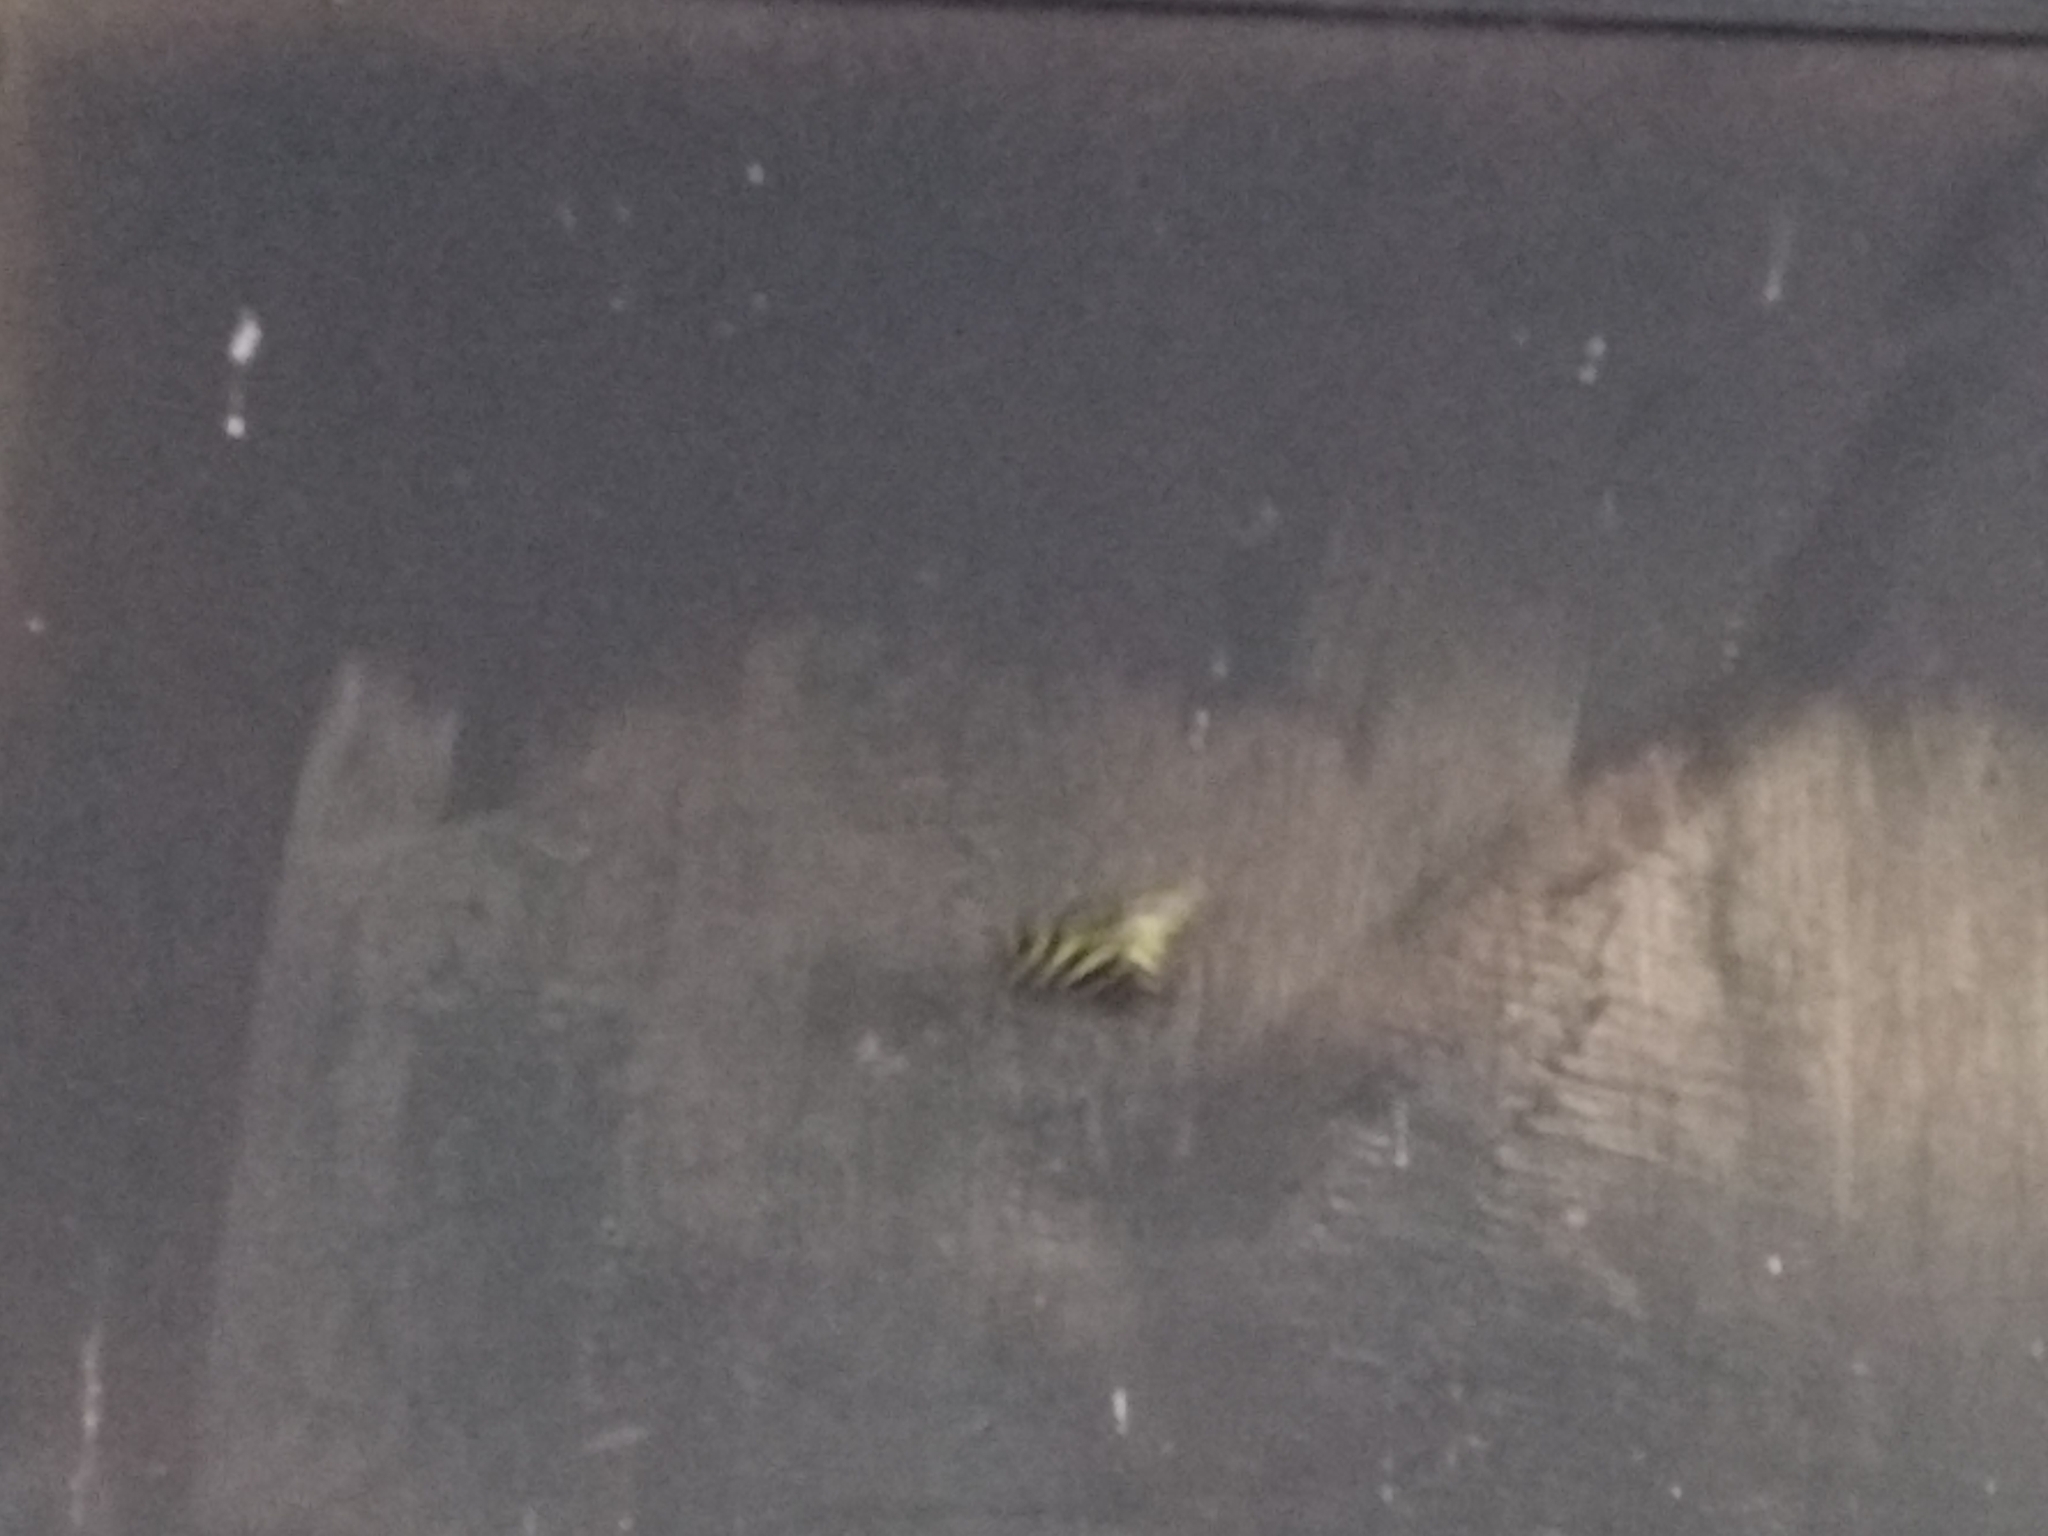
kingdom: Animalia
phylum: Arthropoda
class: Insecta
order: Lepidoptera
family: Nymphalidae
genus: Heliconius
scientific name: Heliconius charithonia
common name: Zebra long wing
